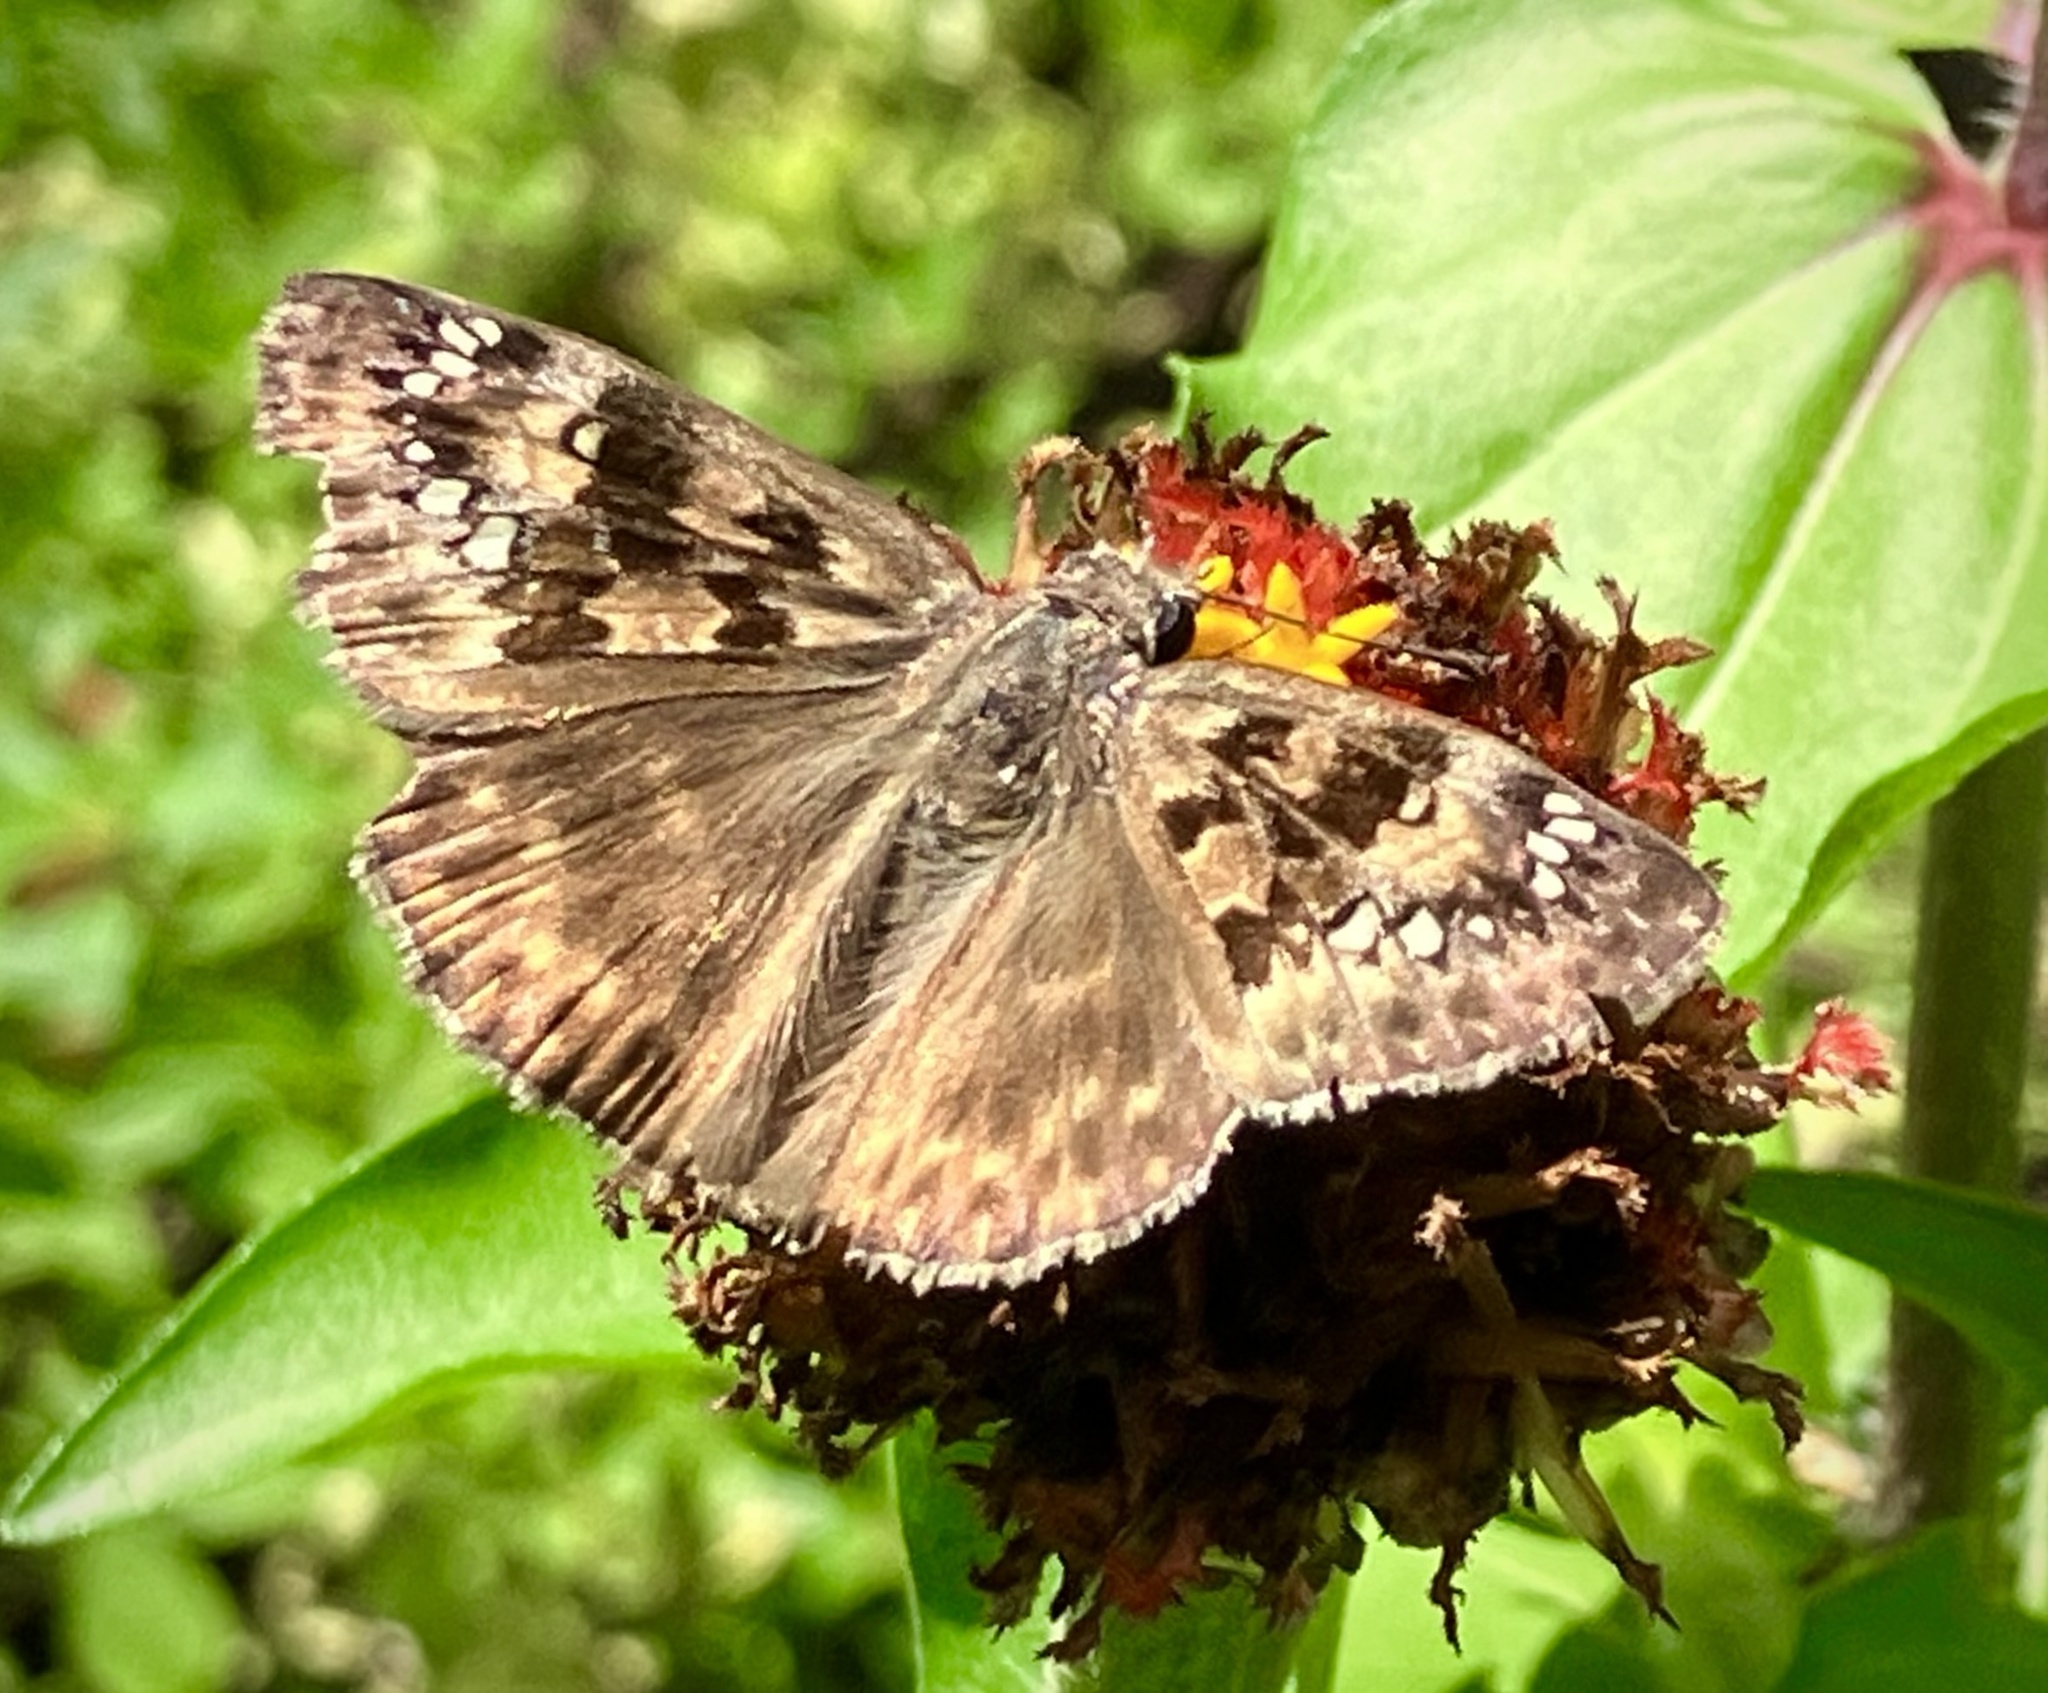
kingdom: Animalia
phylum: Arthropoda
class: Insecta
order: Lepidoptera
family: Hesperiidae
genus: Erynnis
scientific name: Erynnis horatius
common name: Horace's duskywing
